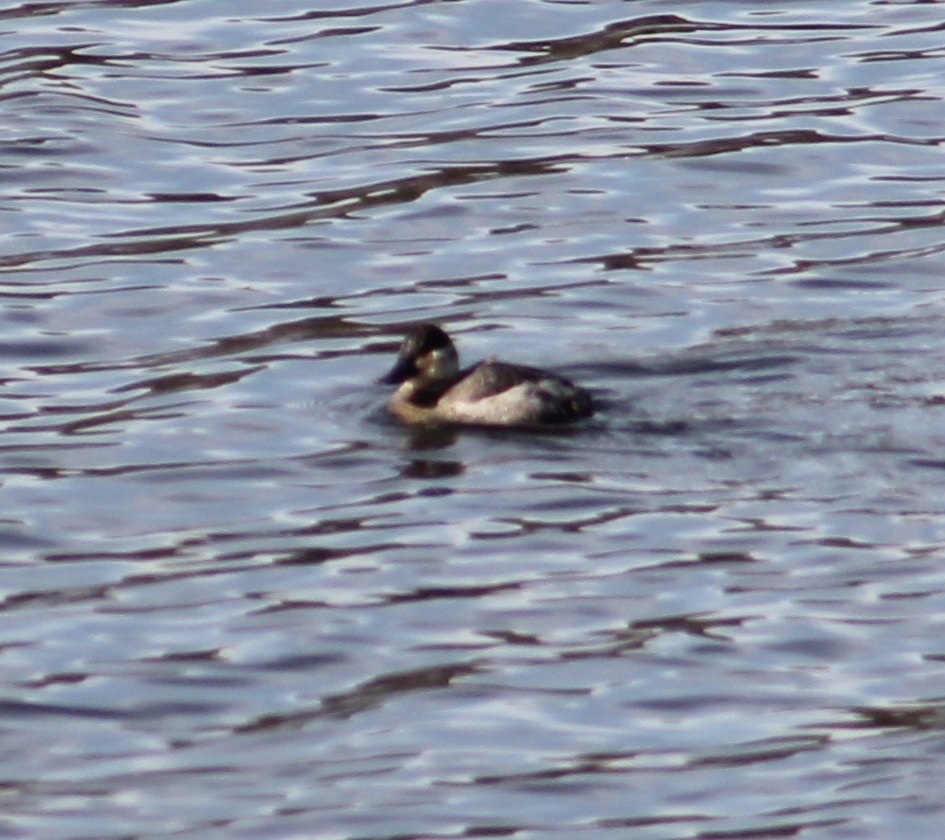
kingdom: Animalia
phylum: Chordata
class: Aves
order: Anseriformes
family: Anatidae
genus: Oxyura
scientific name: Oxyura jamaicensis
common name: Ruddy duck
